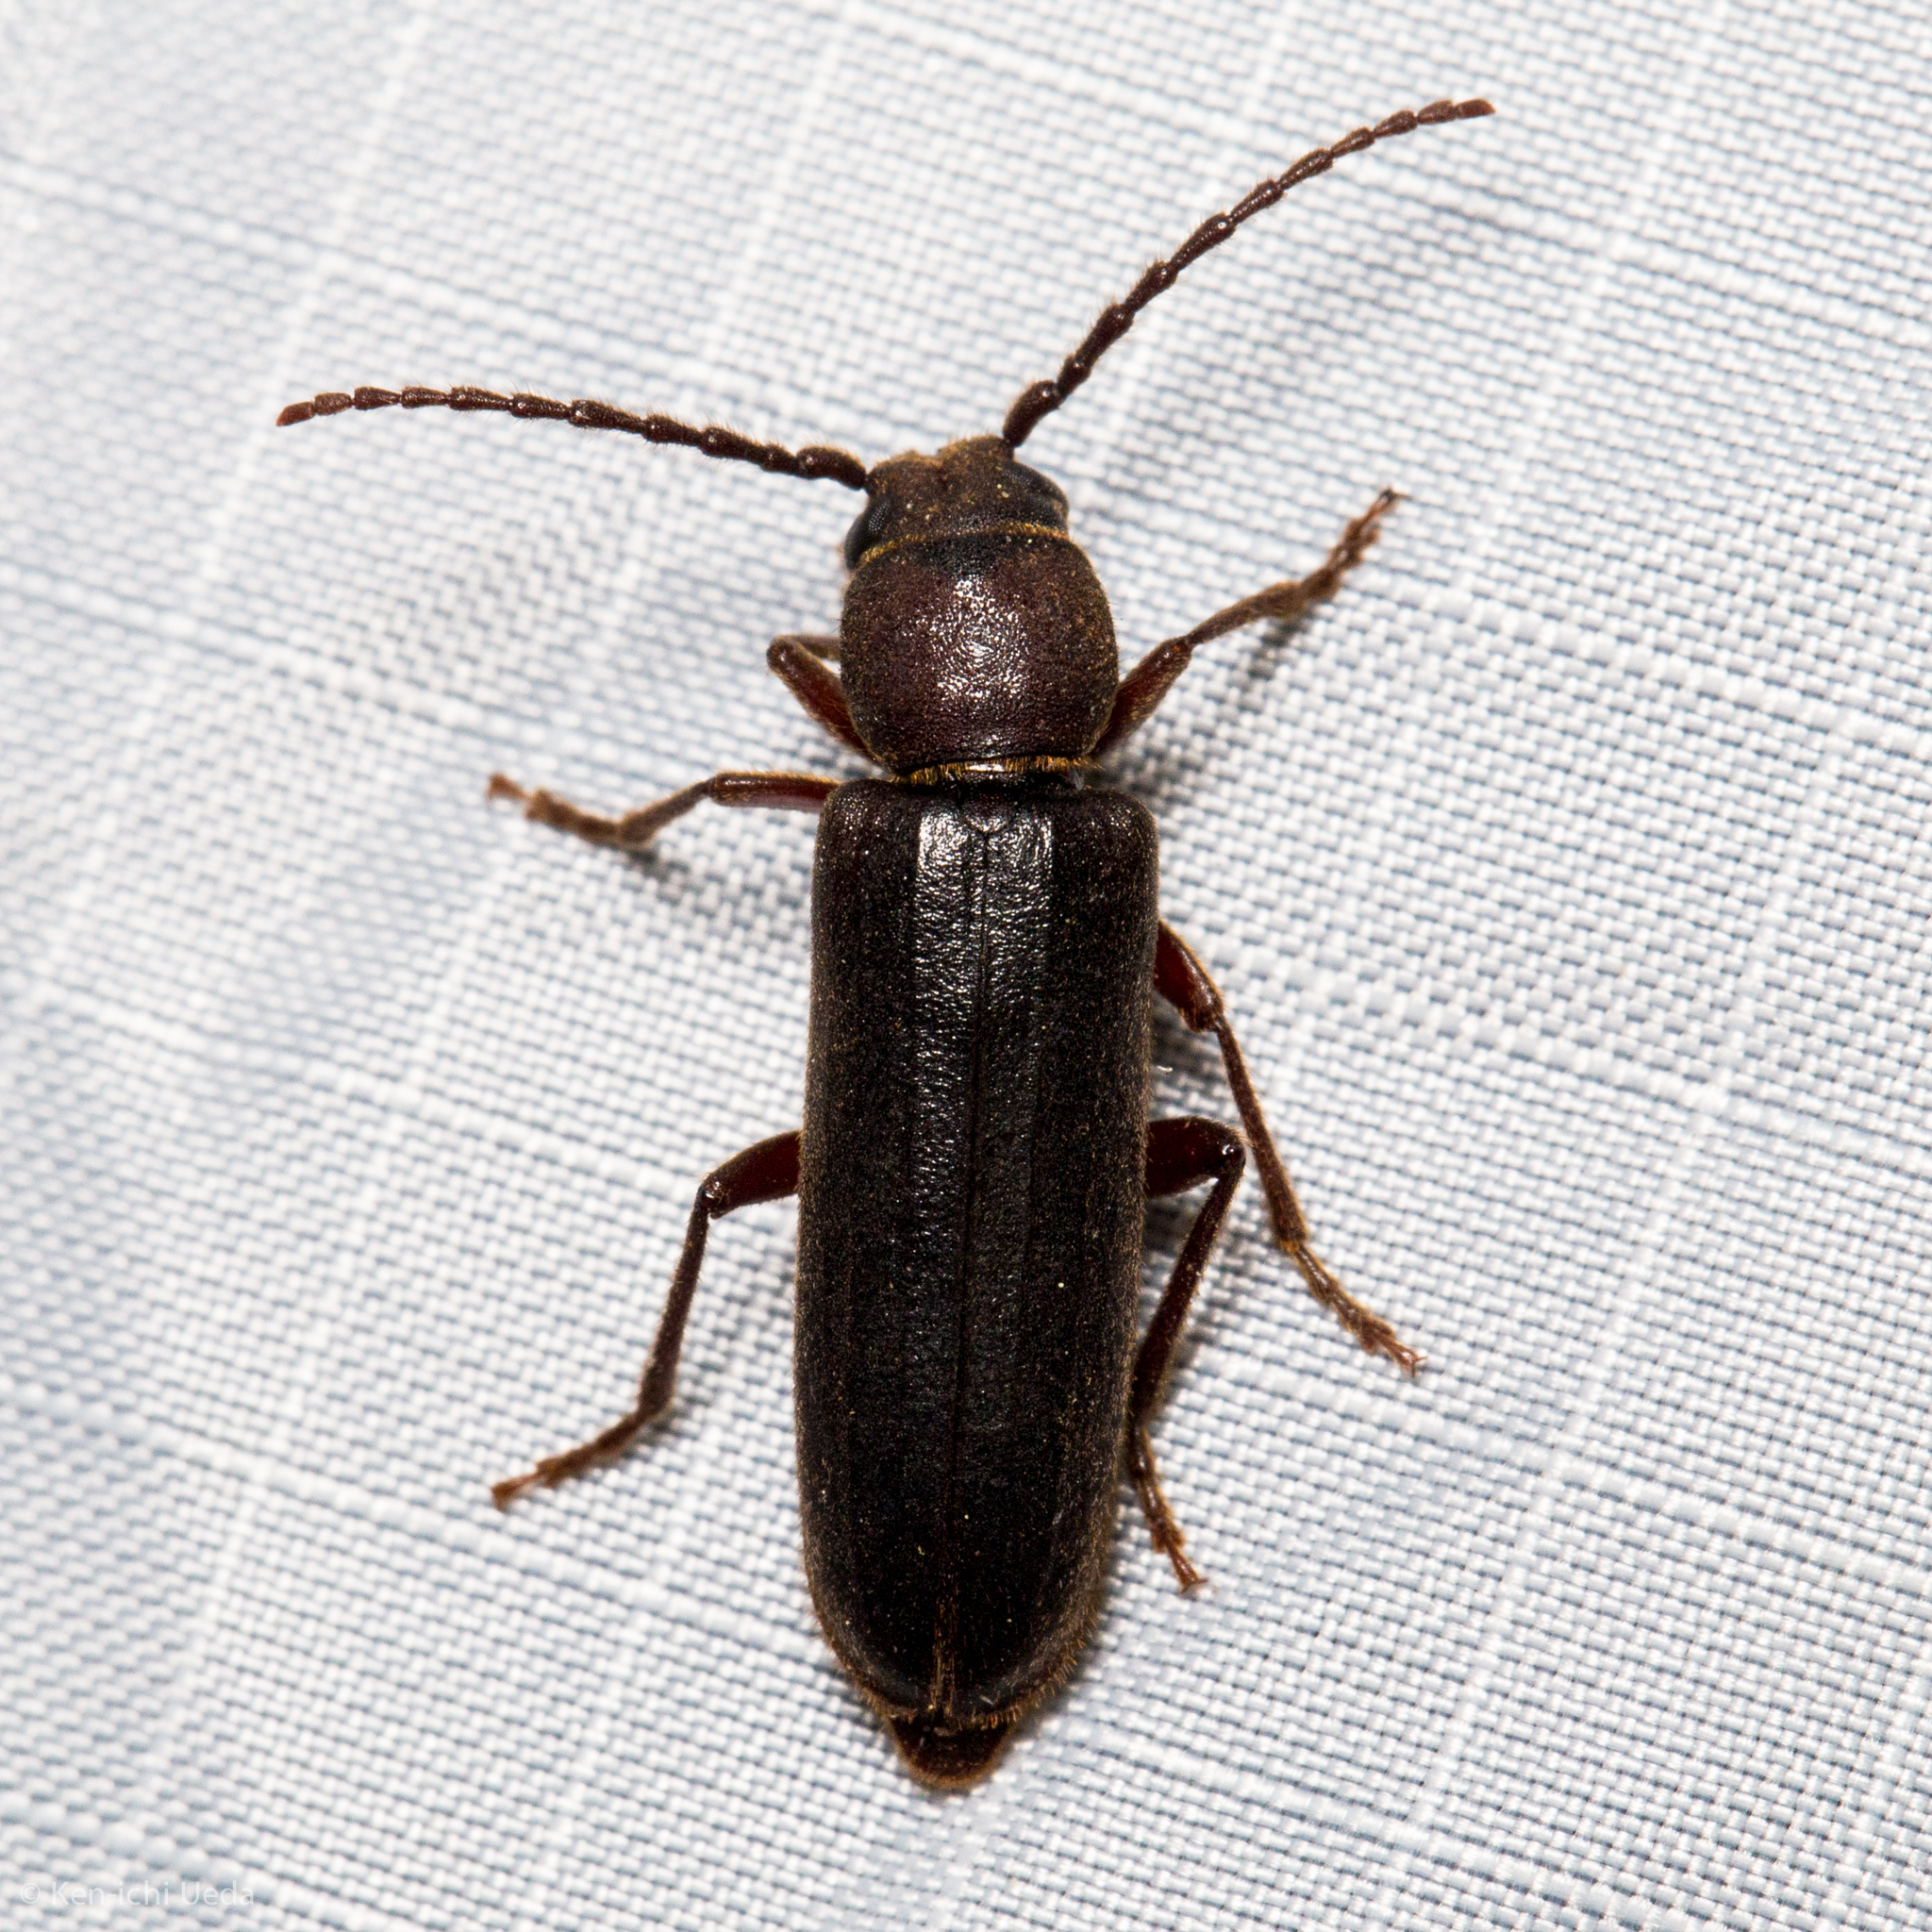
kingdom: Animalia
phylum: Arthropoda
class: Insecta
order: Coleoptera
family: Cerambycidae
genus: Megasemum
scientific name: Megasemum asperum
